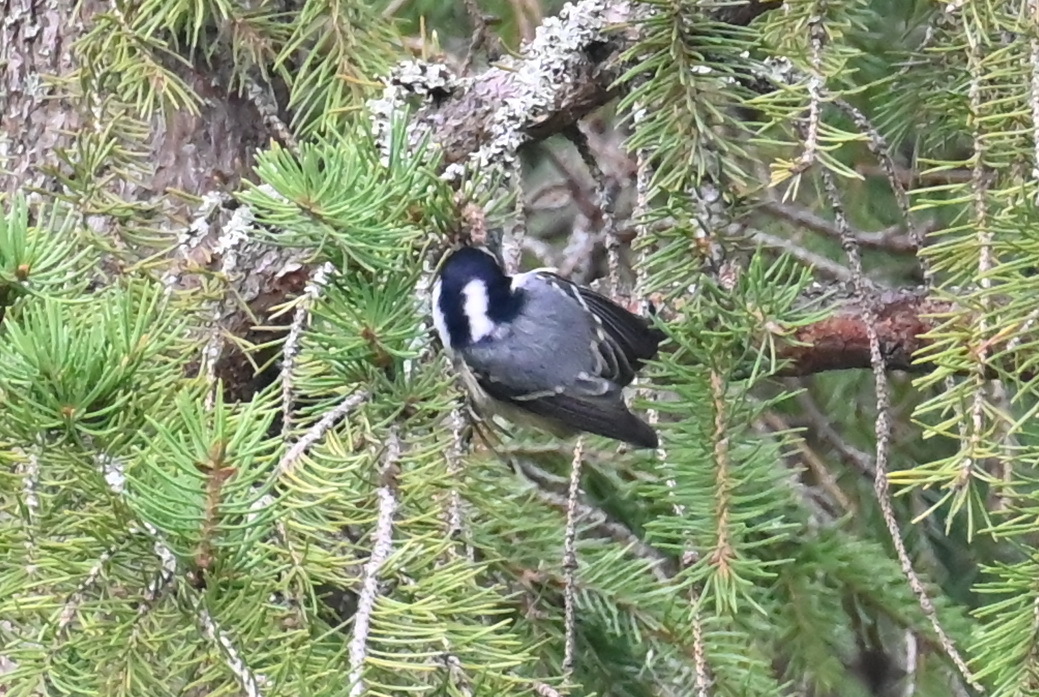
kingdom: Animalia
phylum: Chordata
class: Aves
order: Passeriformes
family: Paridae
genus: Periparus
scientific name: Periparus ater
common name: Coal tit
